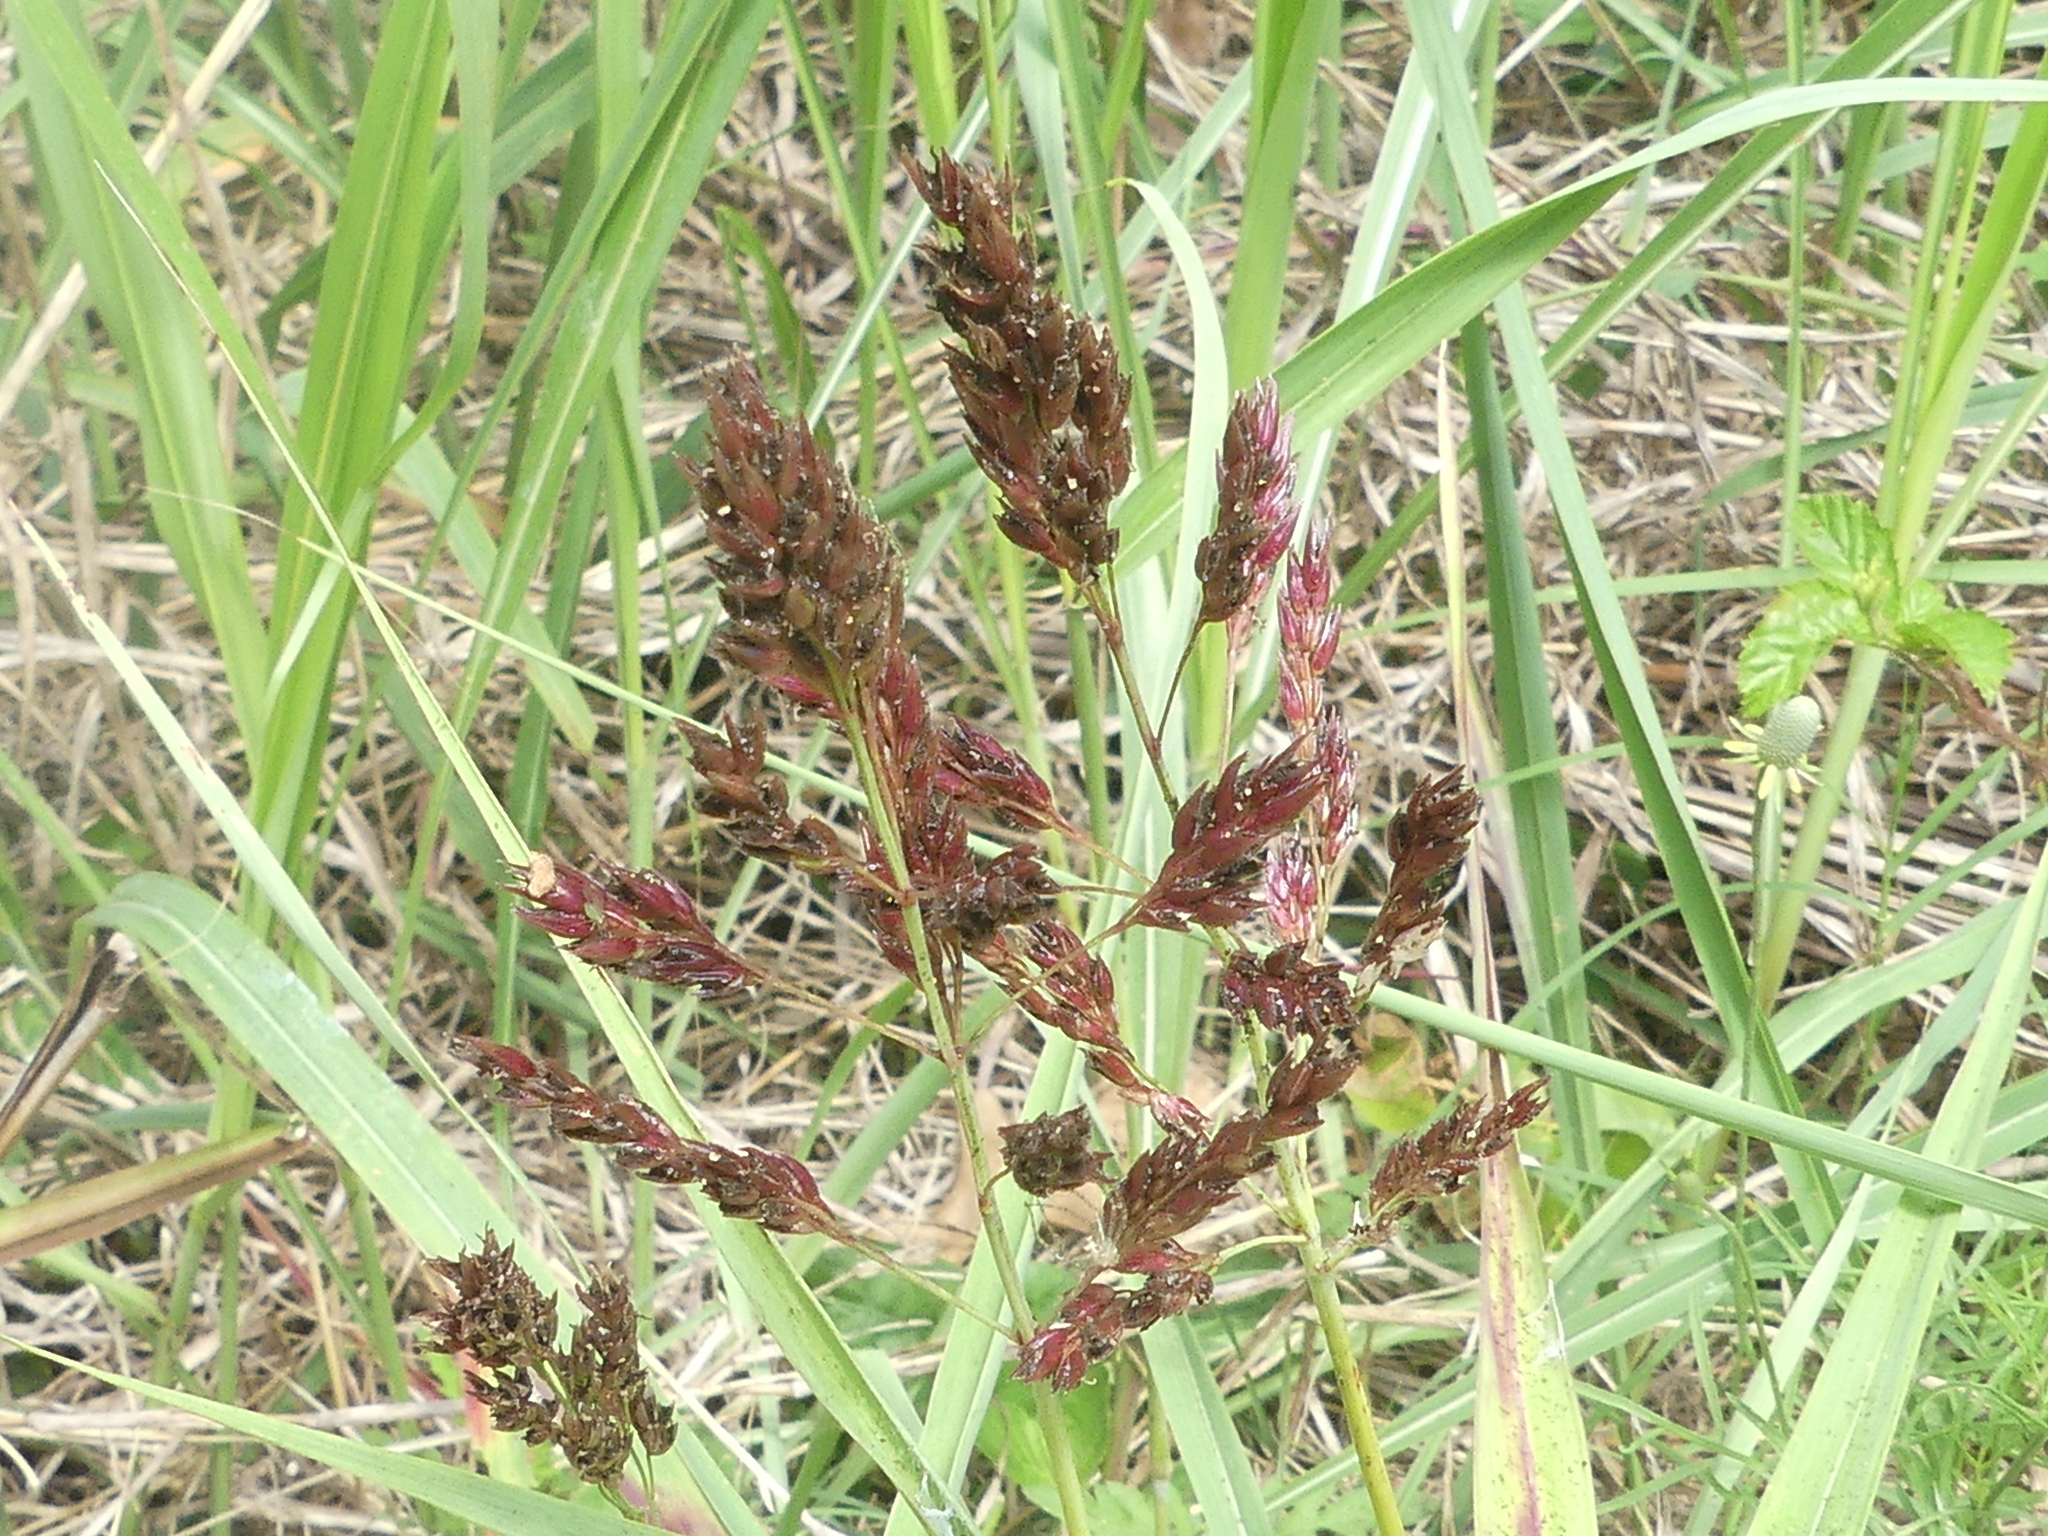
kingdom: Plantae
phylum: Tracheophyta
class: Liliopsida
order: Poales
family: Poaceae
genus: Sorghum
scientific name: Sorghum halepense
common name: Johnson-grass
